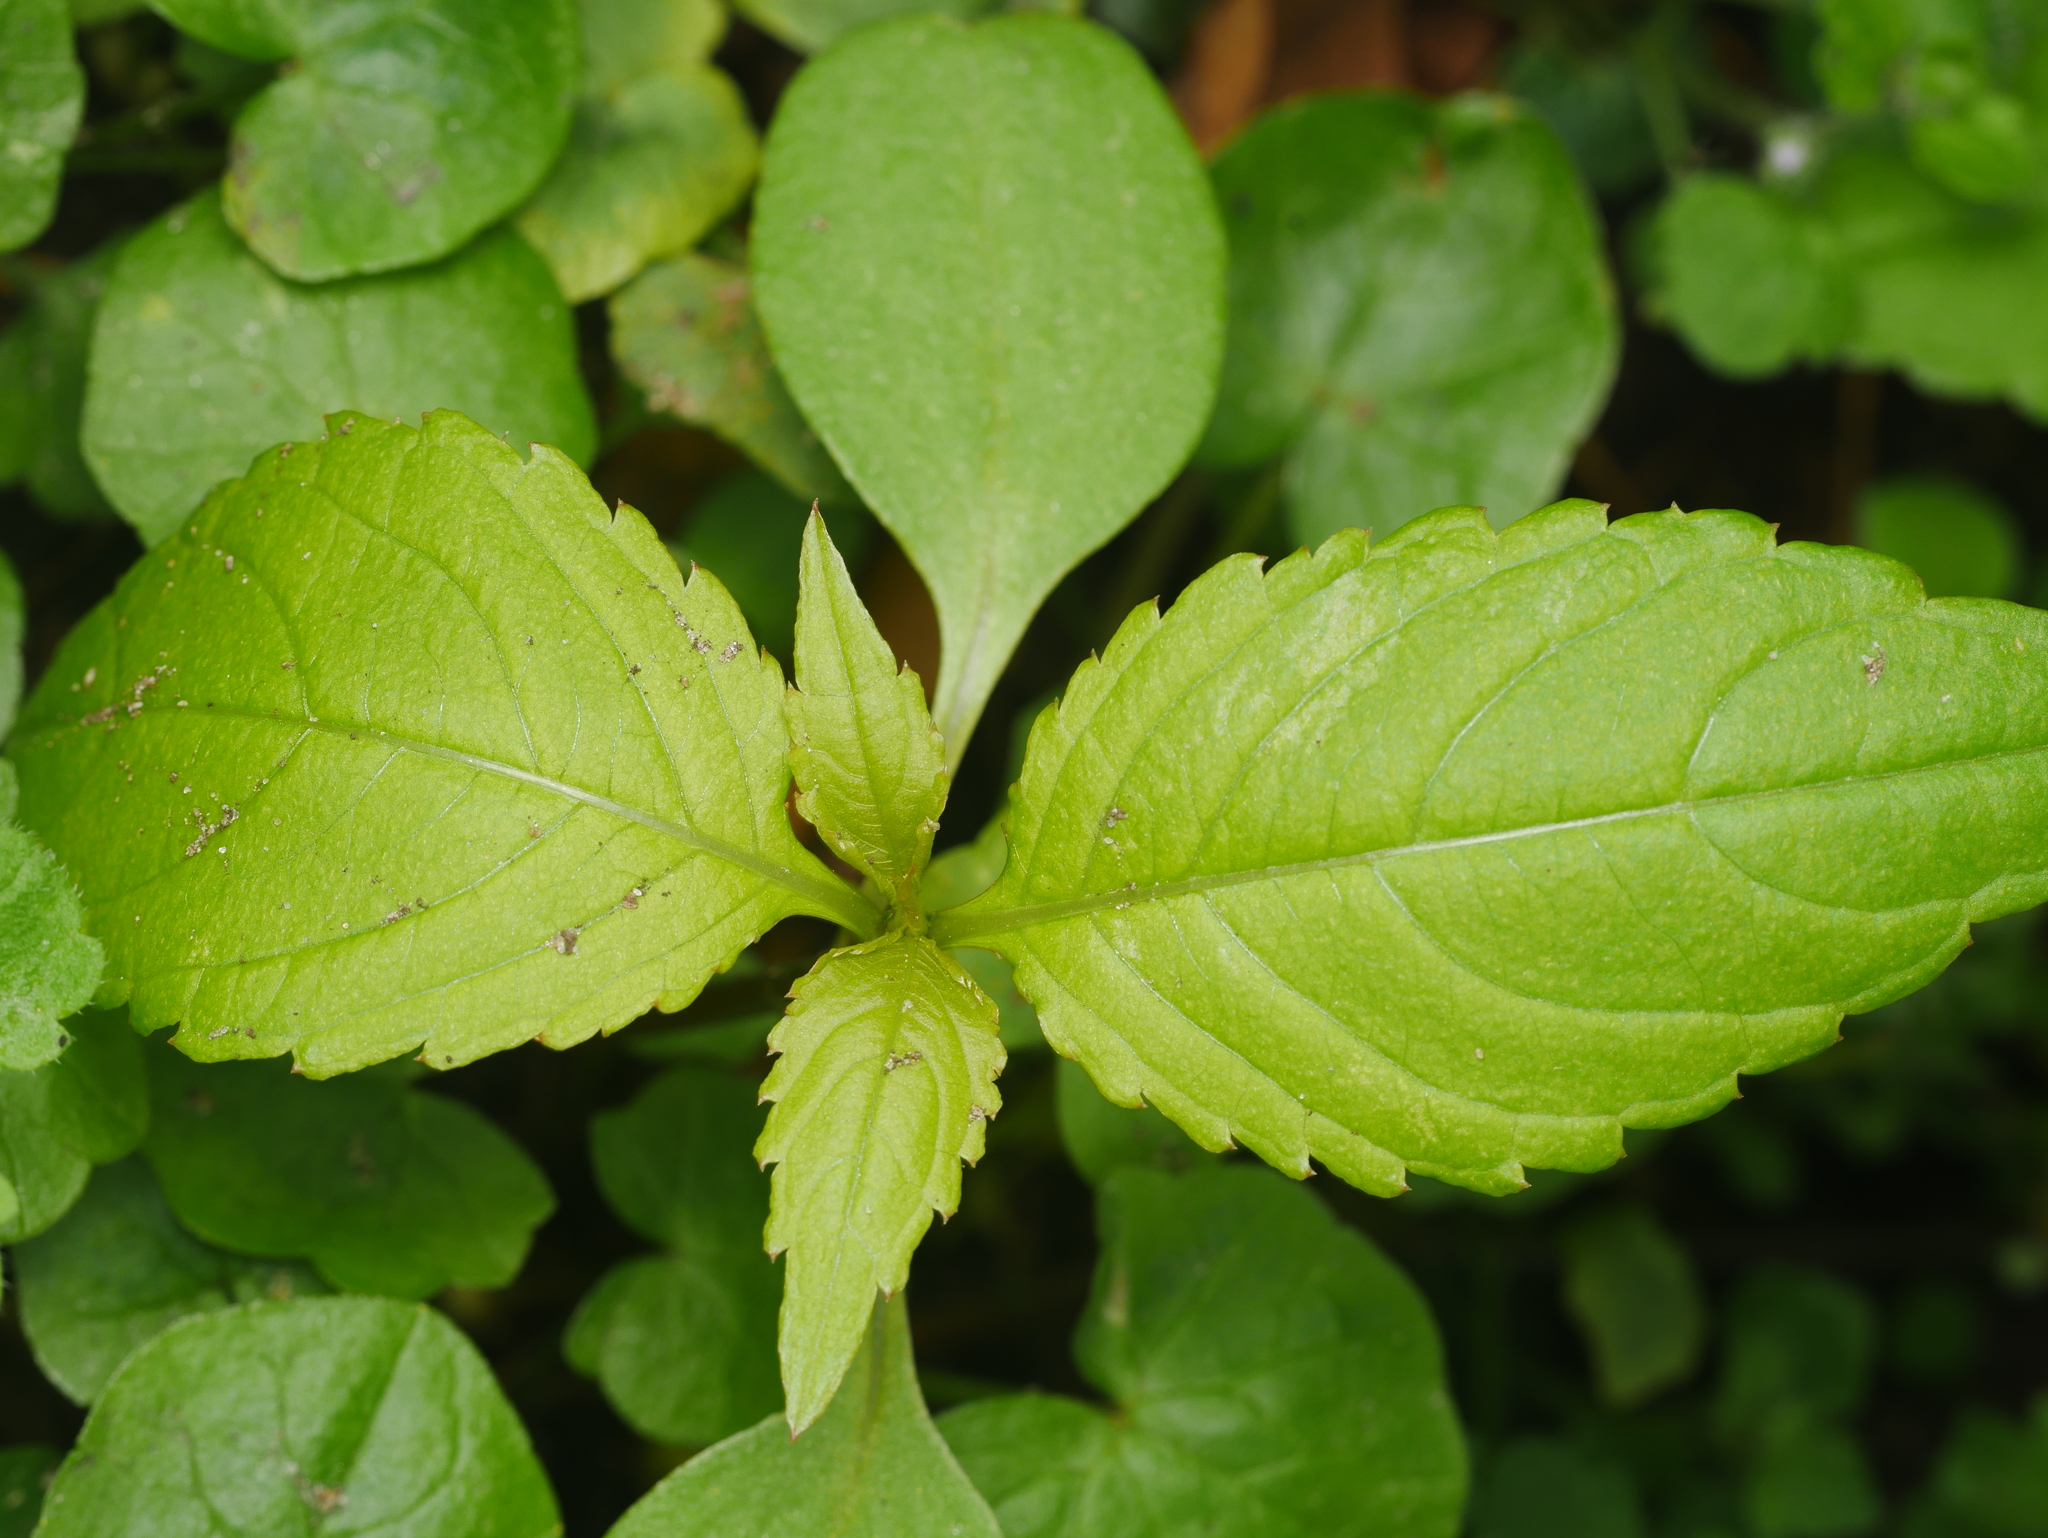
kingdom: Plantae
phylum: Tracheophyta
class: Magnoliopsida
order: Ericales
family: Balsaminaceae
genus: Impatiens
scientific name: Impatiens parviflora
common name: Small balsam
